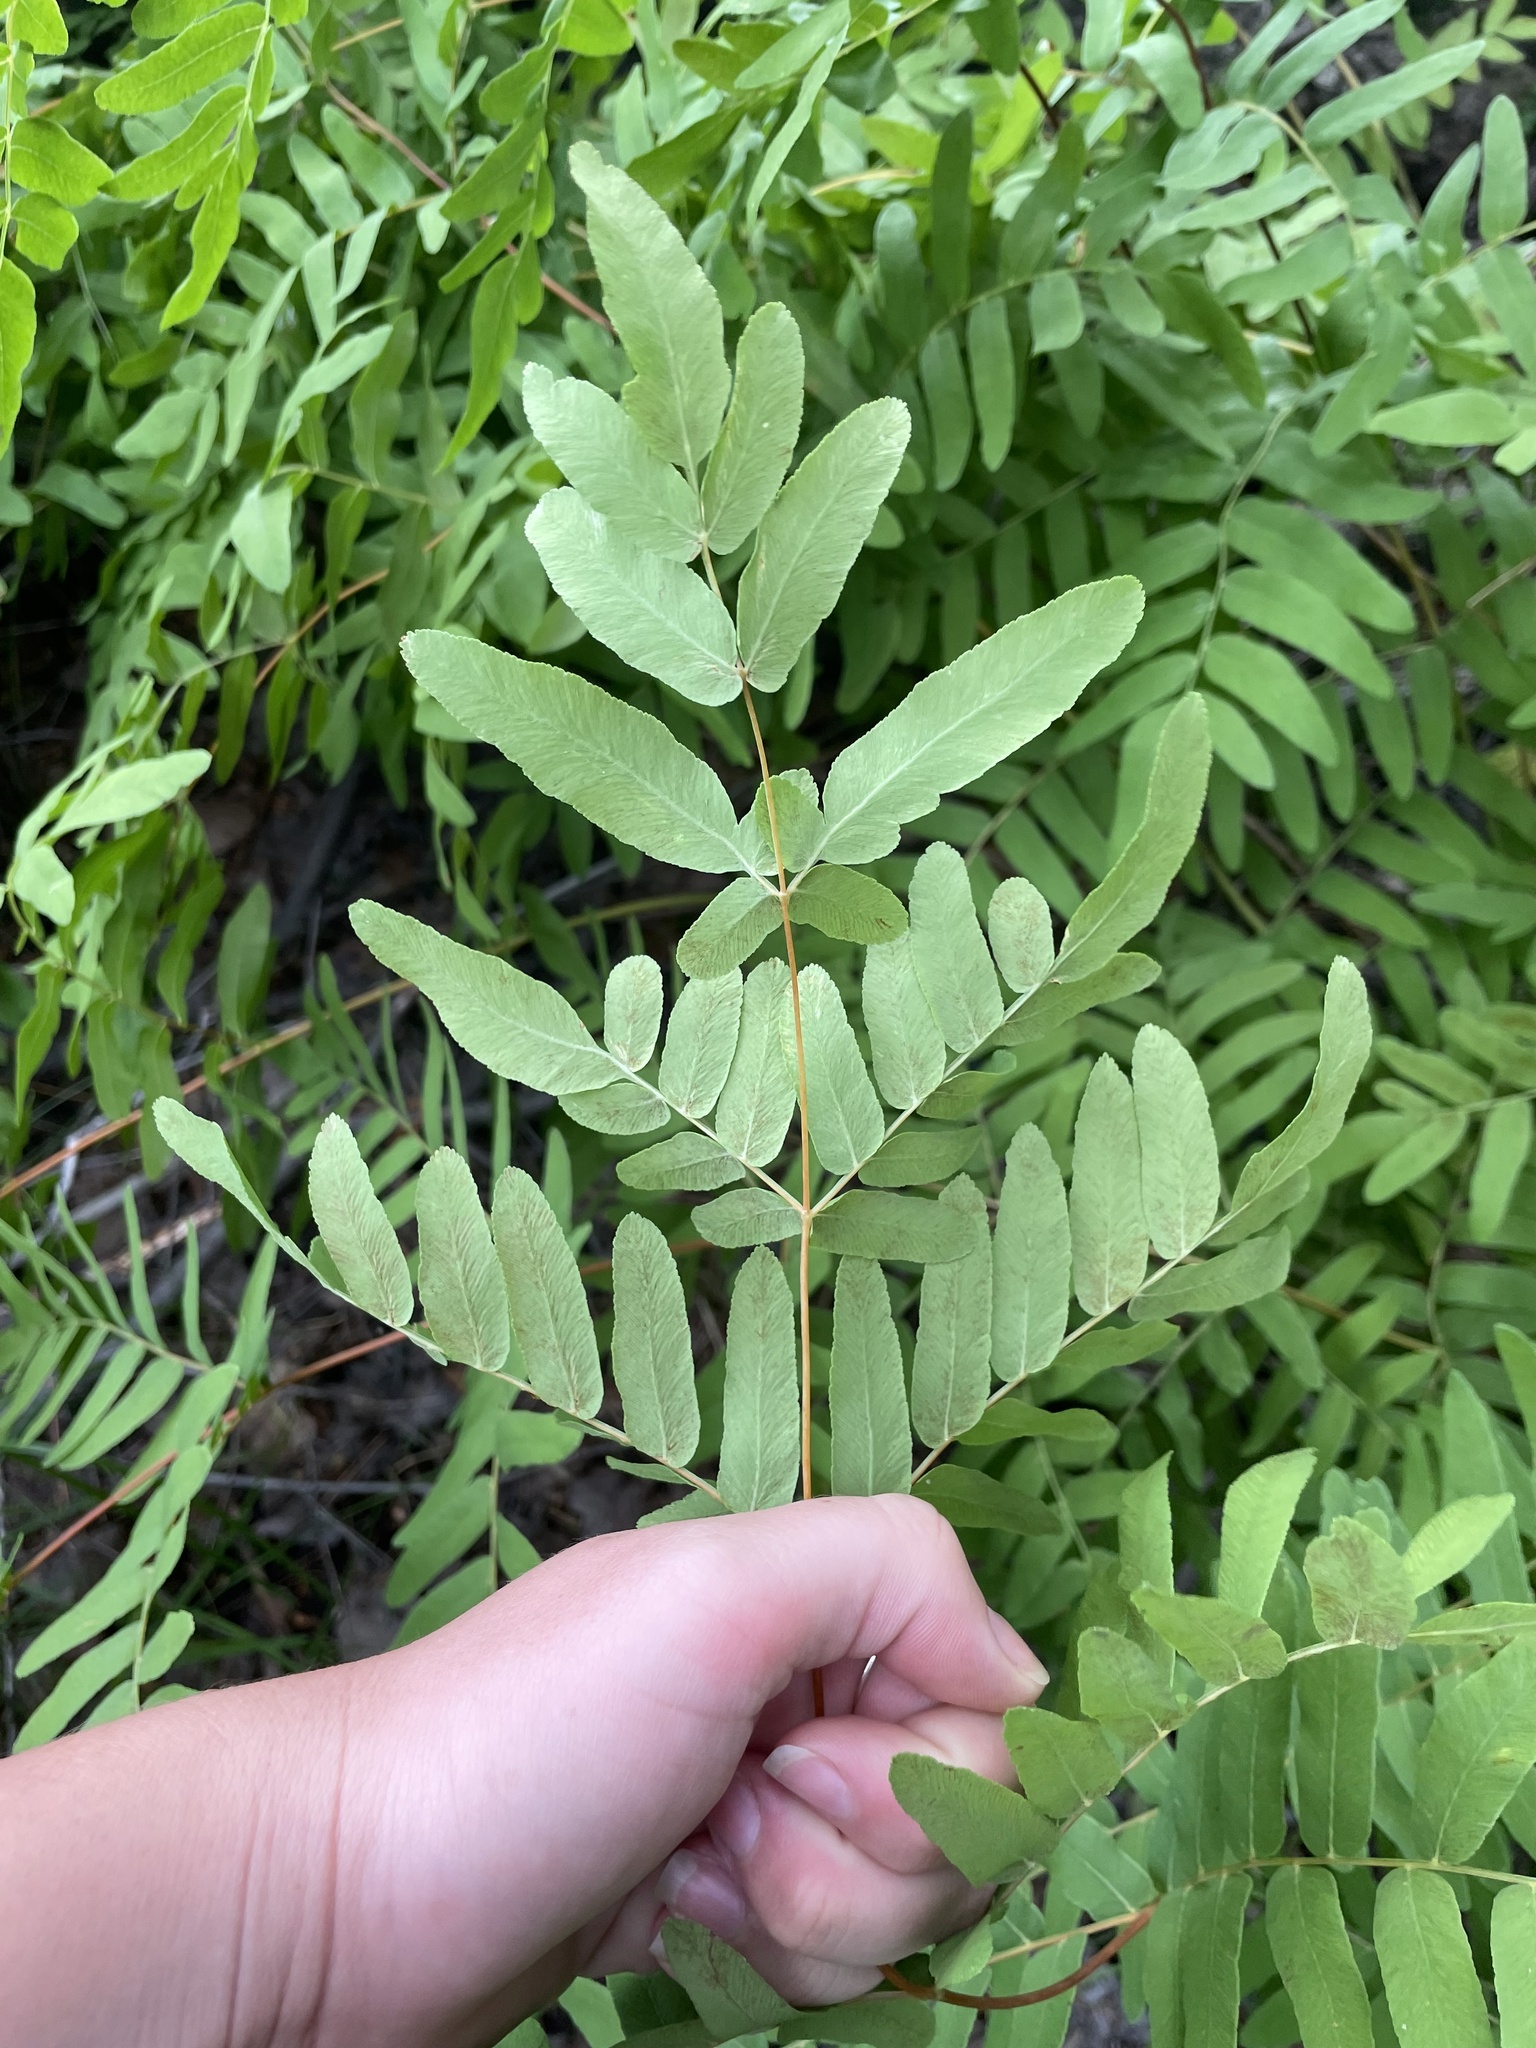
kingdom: Plantae
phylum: Tracheophyta
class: Polypodiopsida
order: Osmundales
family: Osmundaceae
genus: Osmunda
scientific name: Osmunda spectabilis
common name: American royal fern
